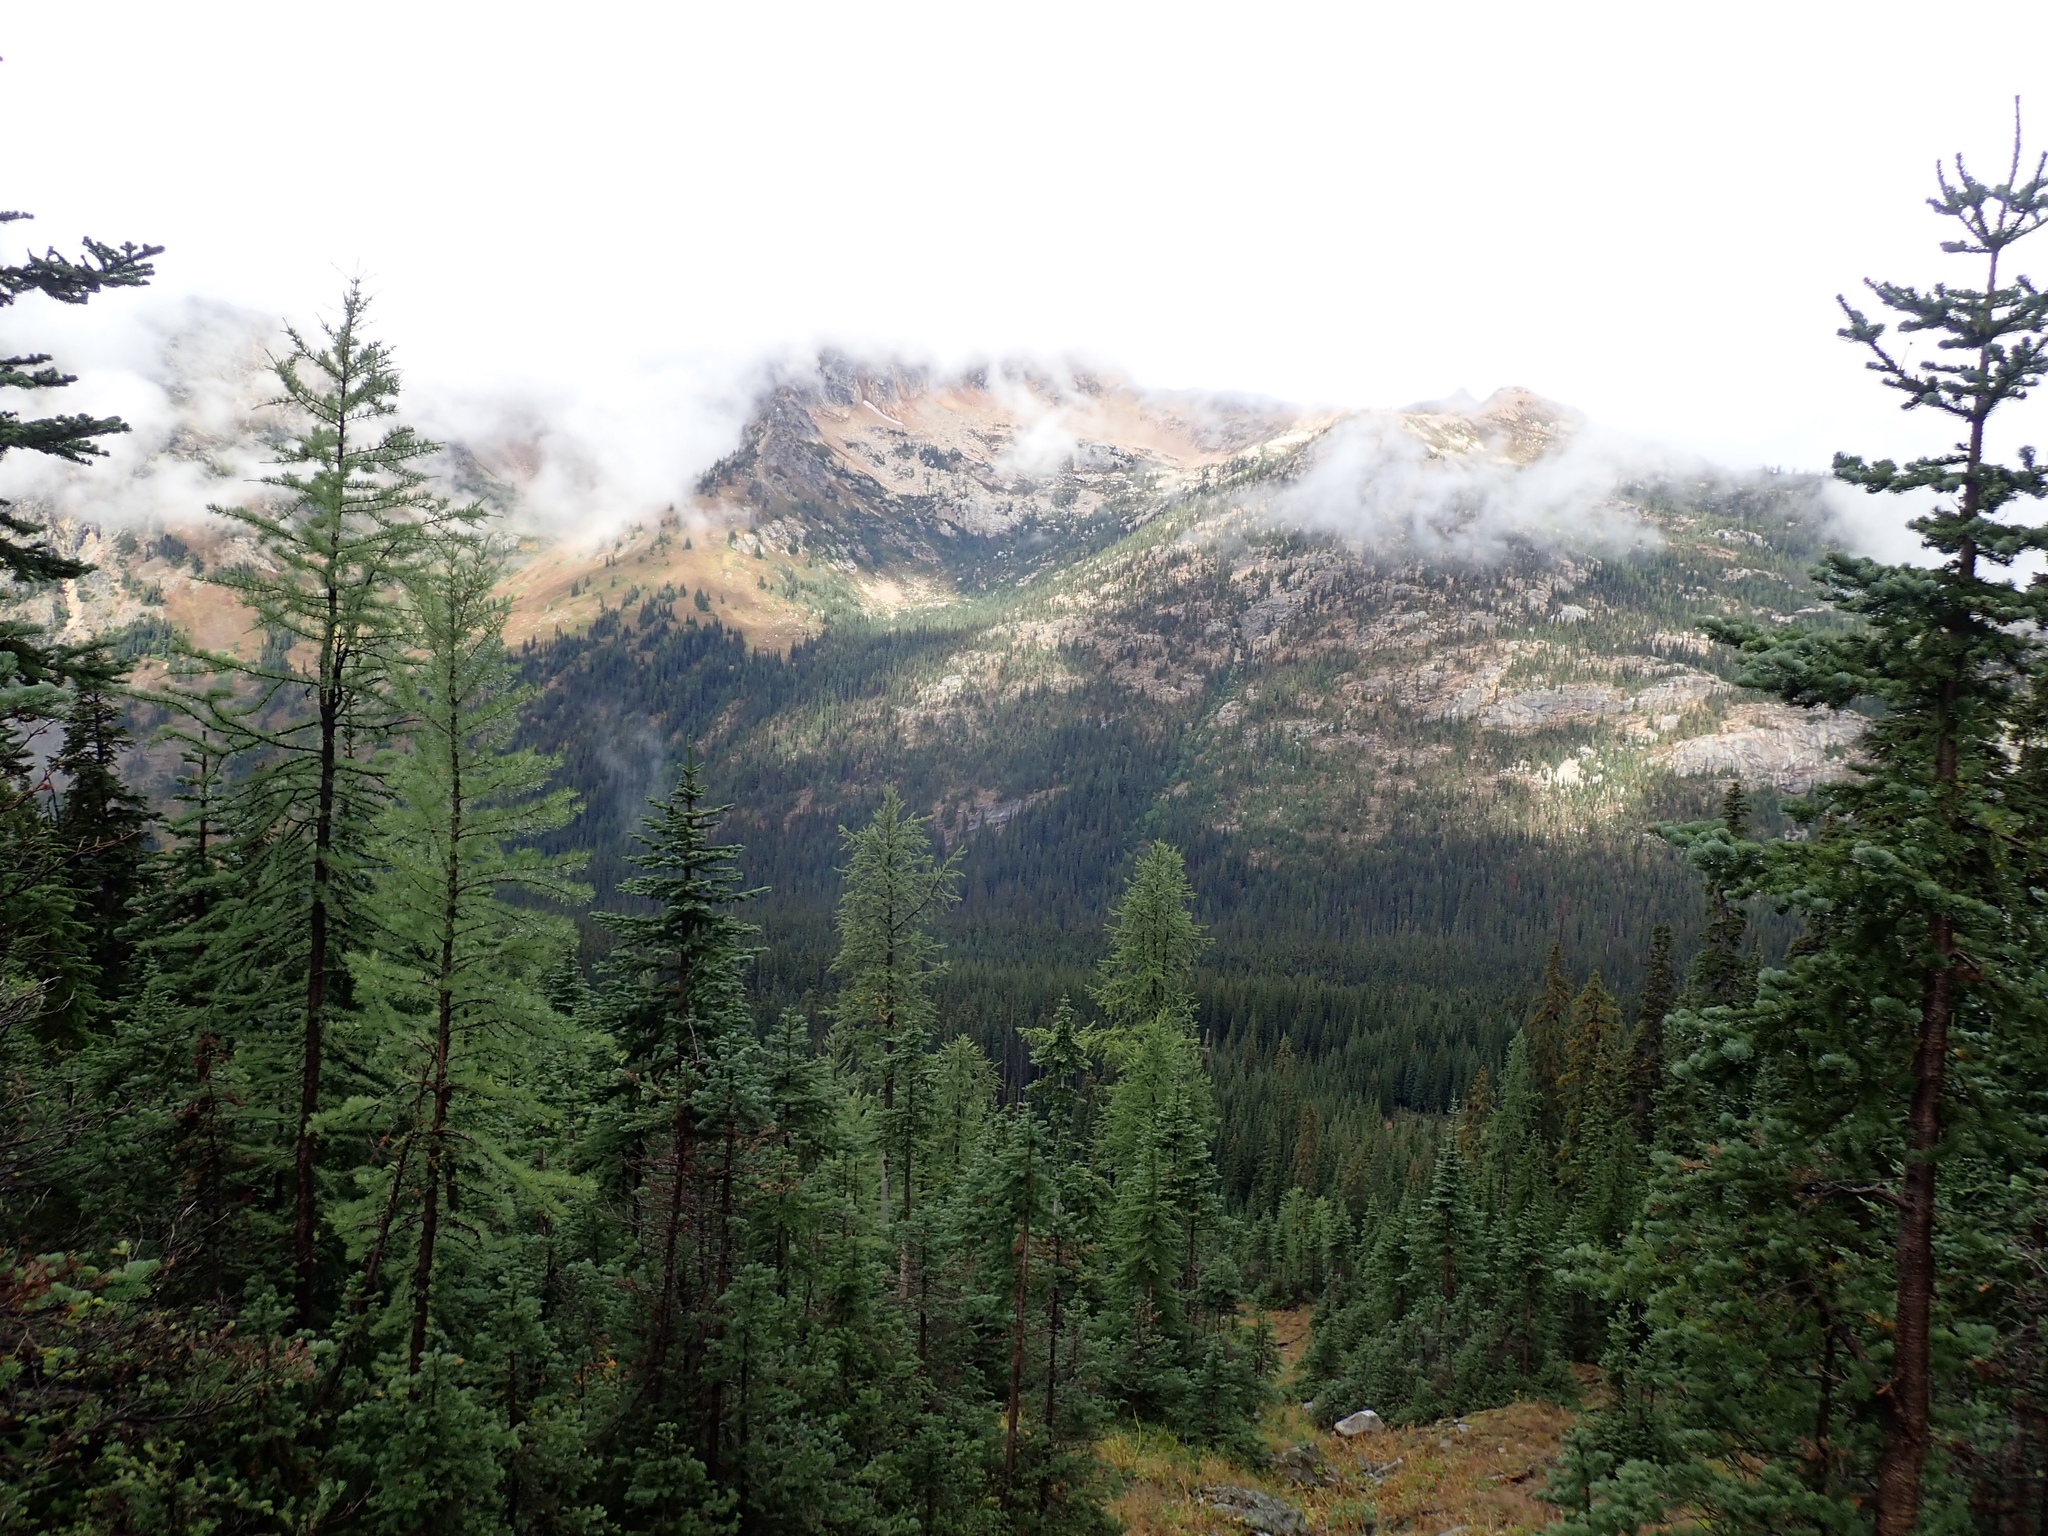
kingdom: Plantae
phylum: Tracheophyta
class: Pinopsida
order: Pinales
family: Pinaceae
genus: Larix
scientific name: Larix lyallii
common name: Alpine larch
